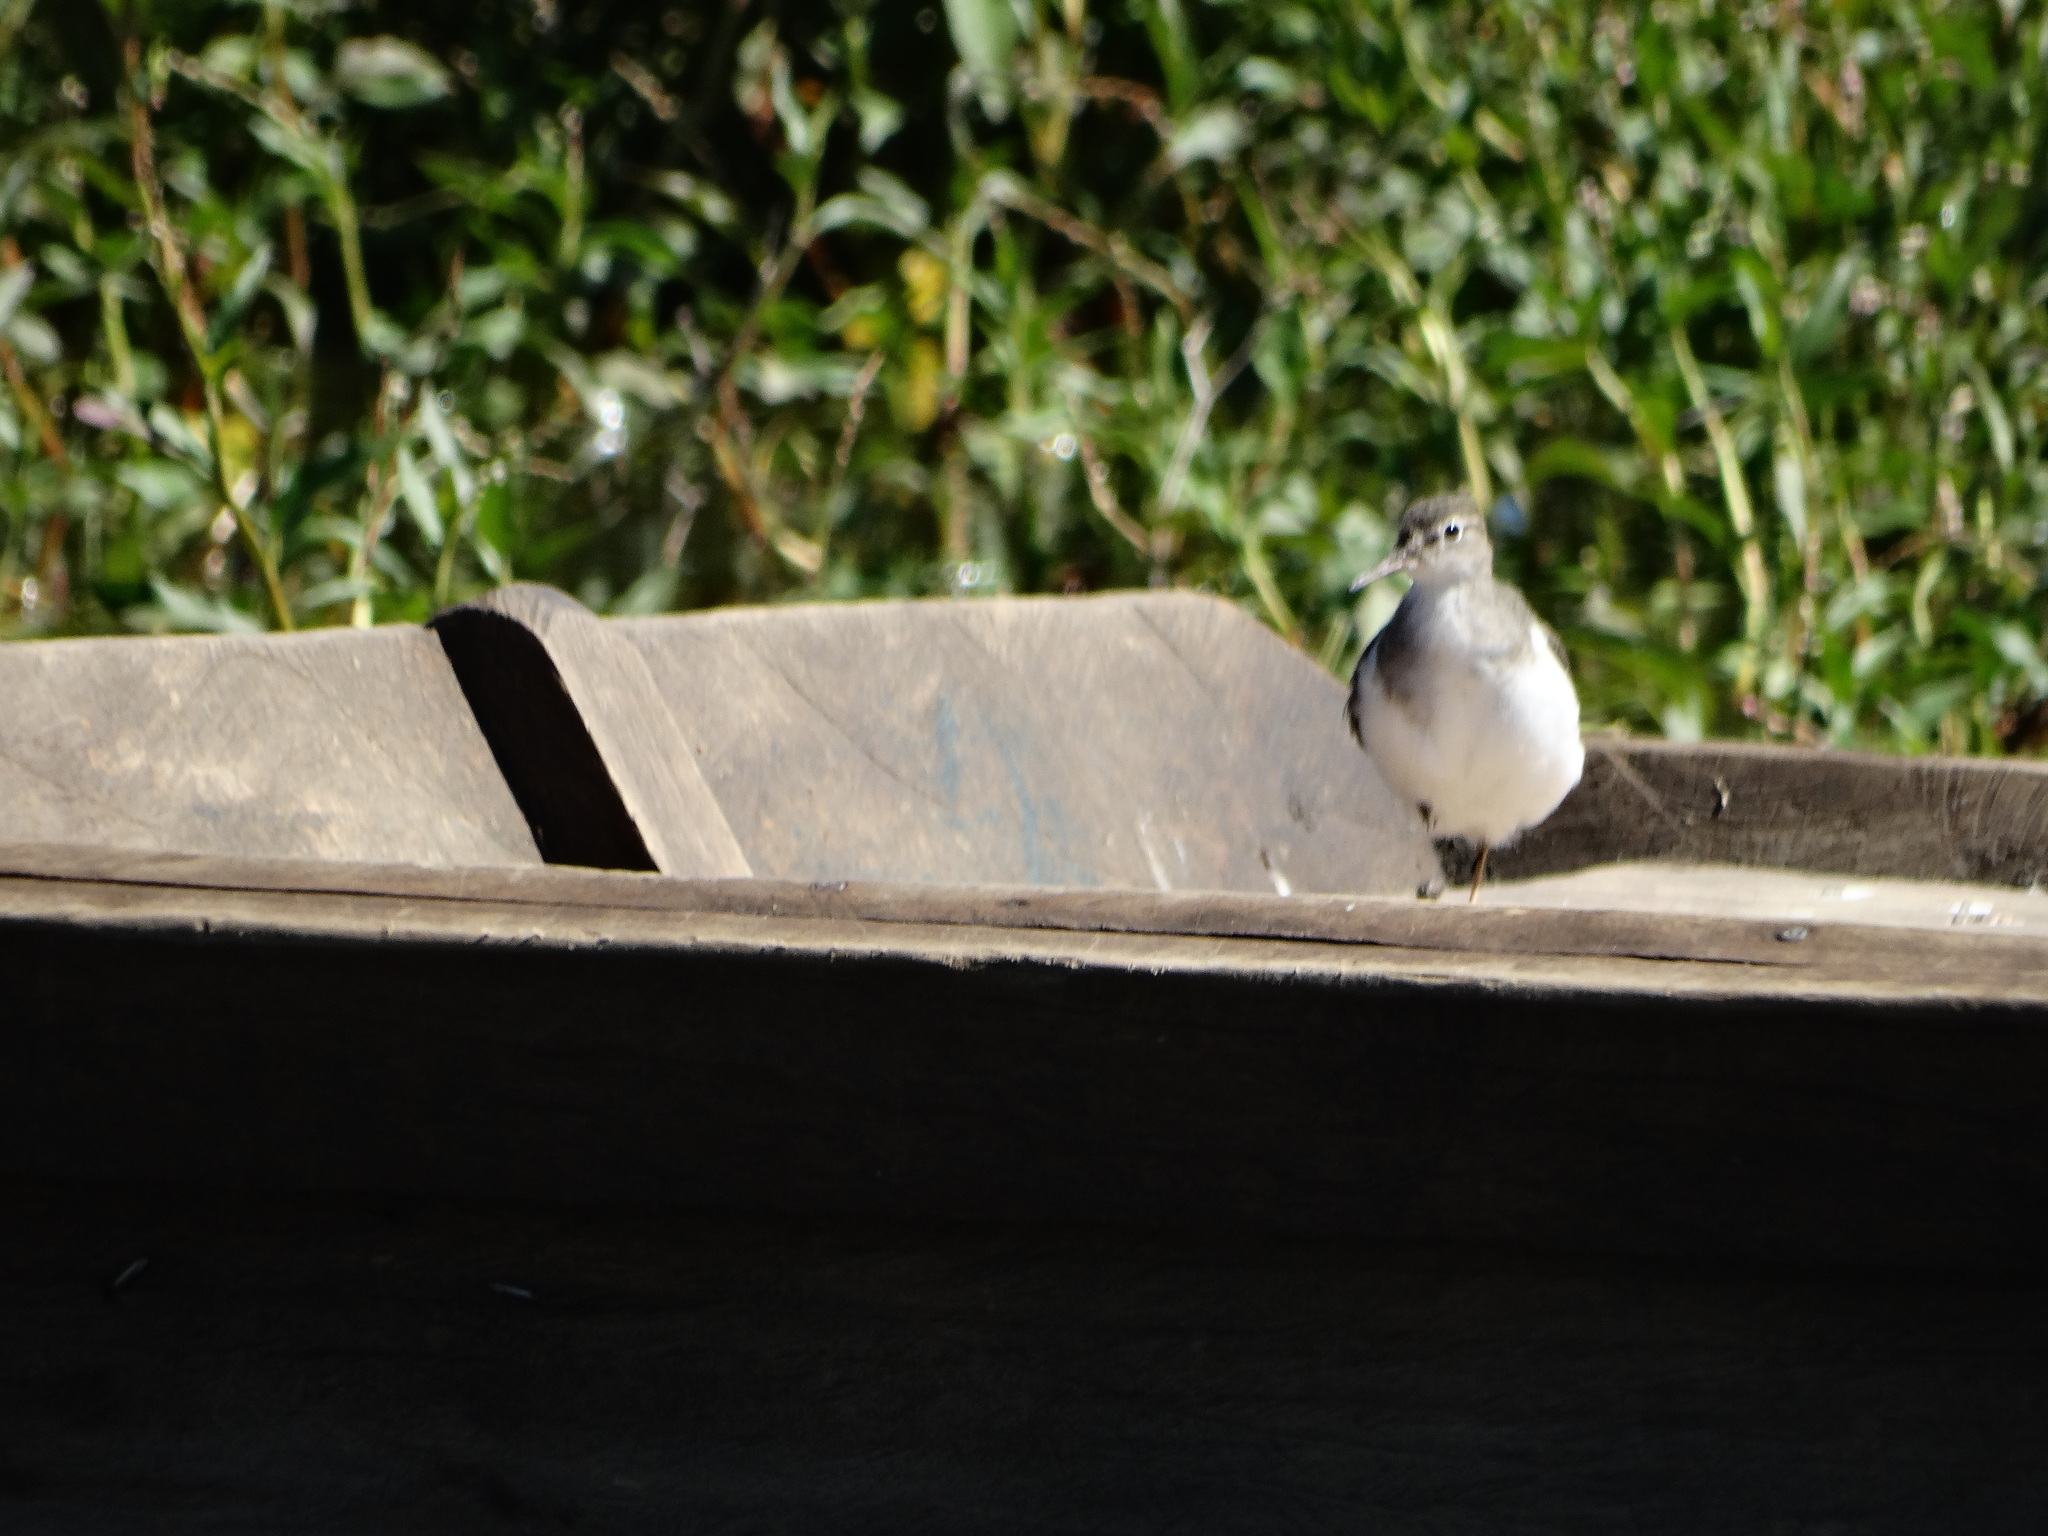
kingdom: Animalia
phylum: Chordata
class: Aves
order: Charadriiformes
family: Scolopacidae
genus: Actitis
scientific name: Actitis macularius
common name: Spotted sandpiper
